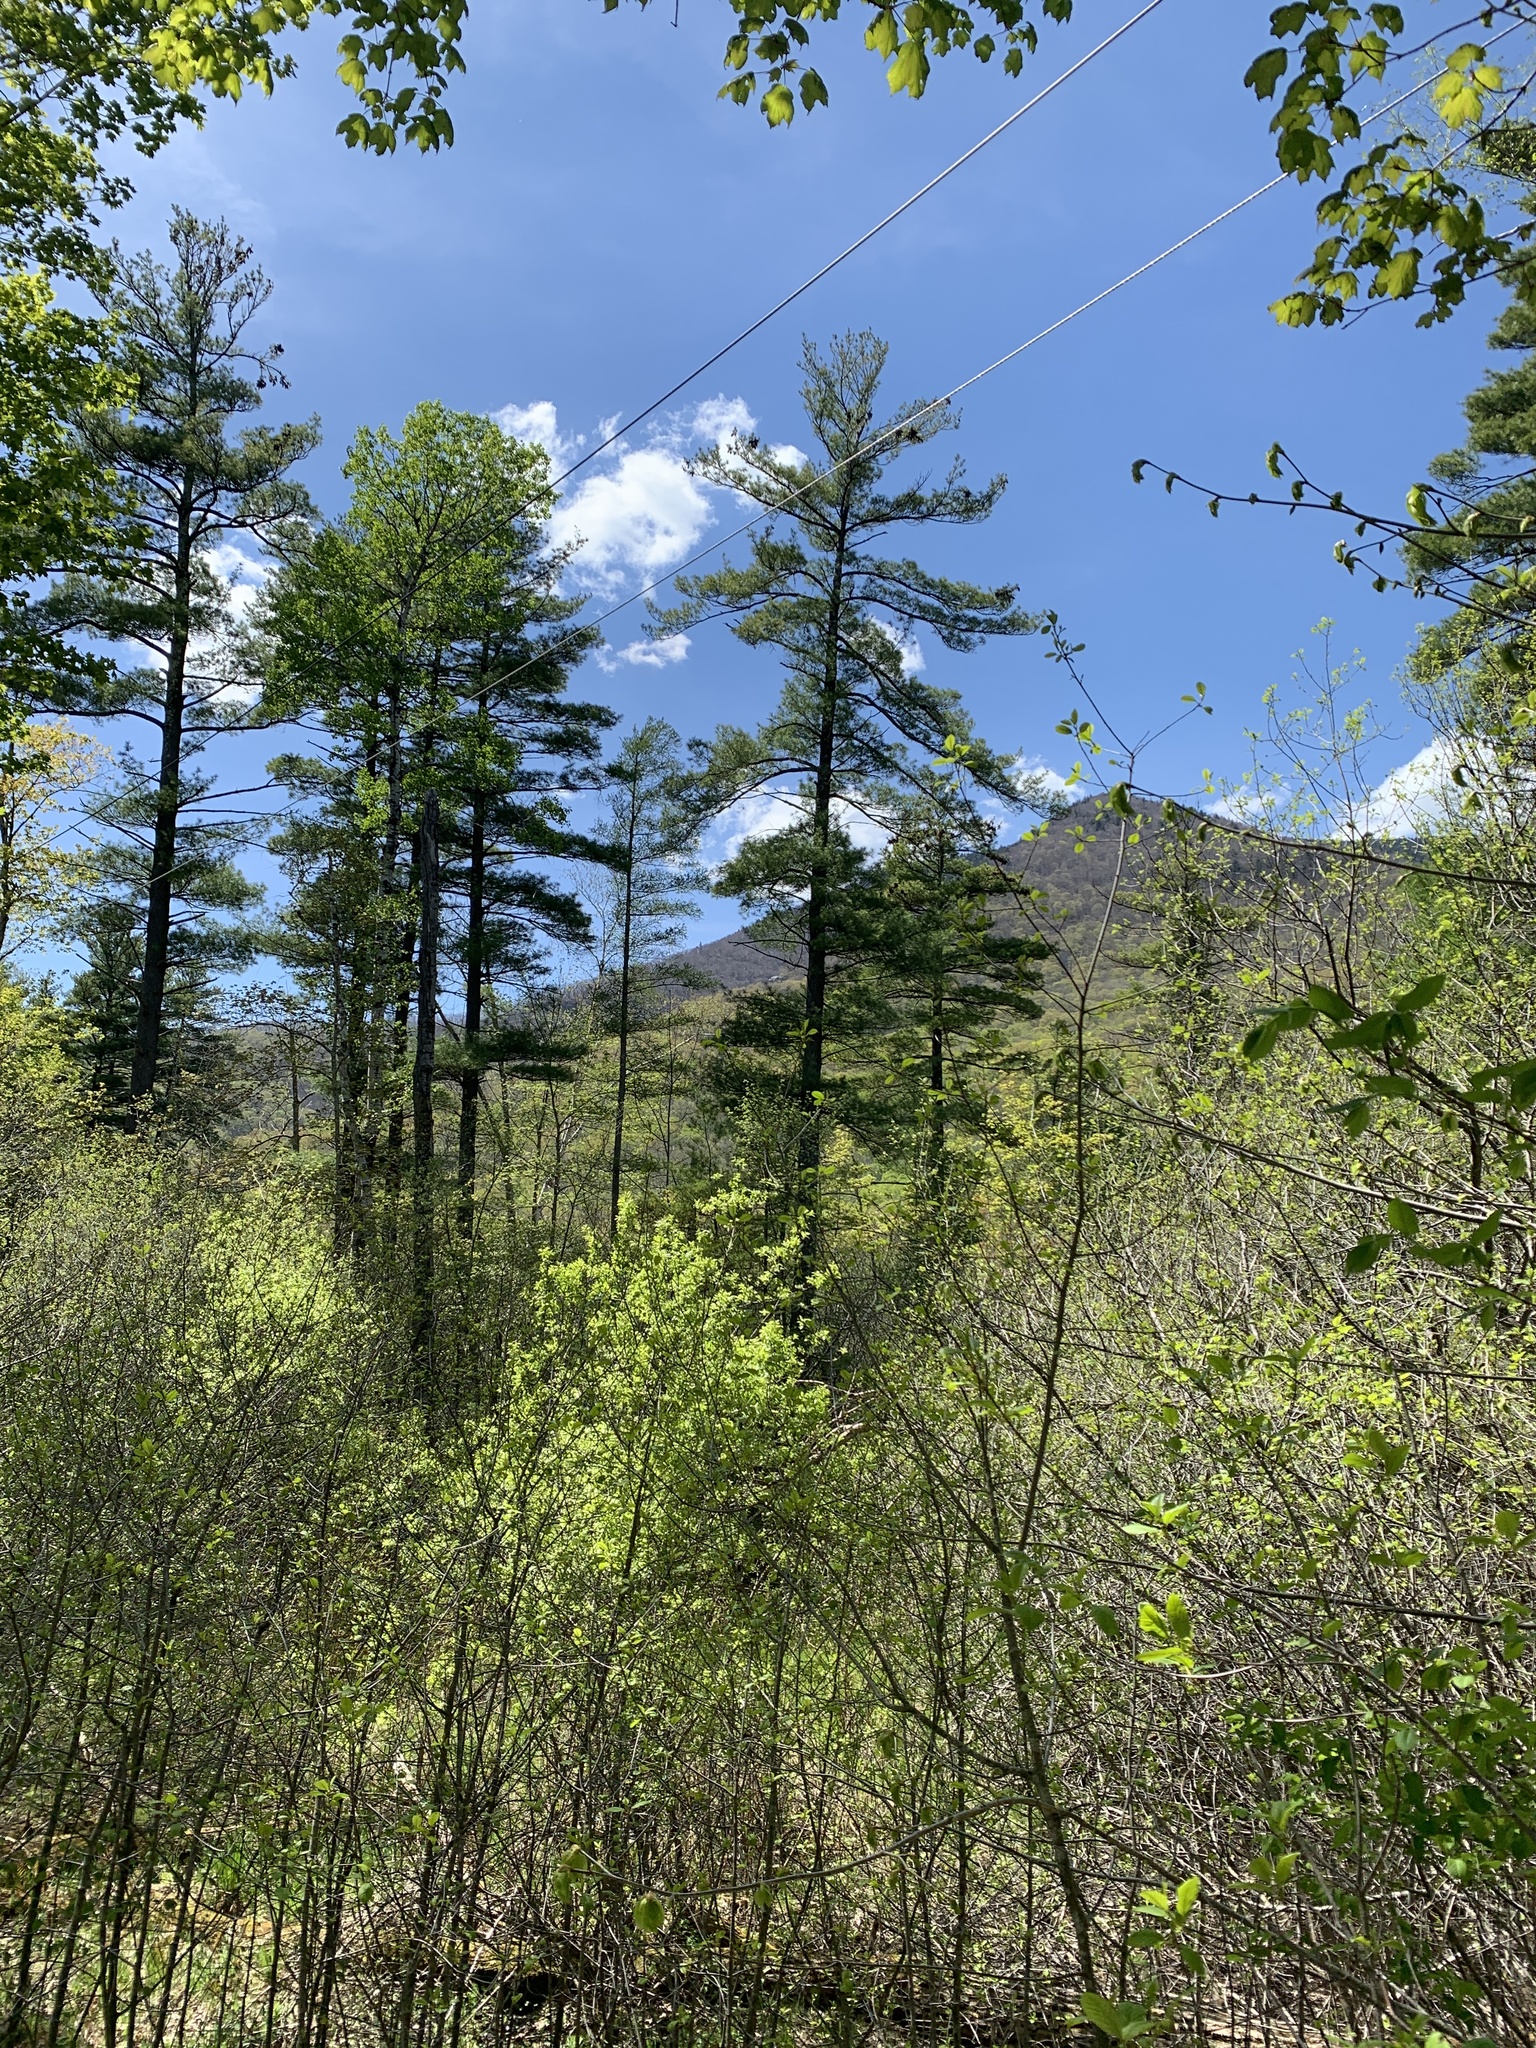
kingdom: Plantae
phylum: Tracheophyta
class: Pinopsida
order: Pinales
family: Pinaceae
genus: Pinus
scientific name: Pinus strobus
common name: Weymouth pine
